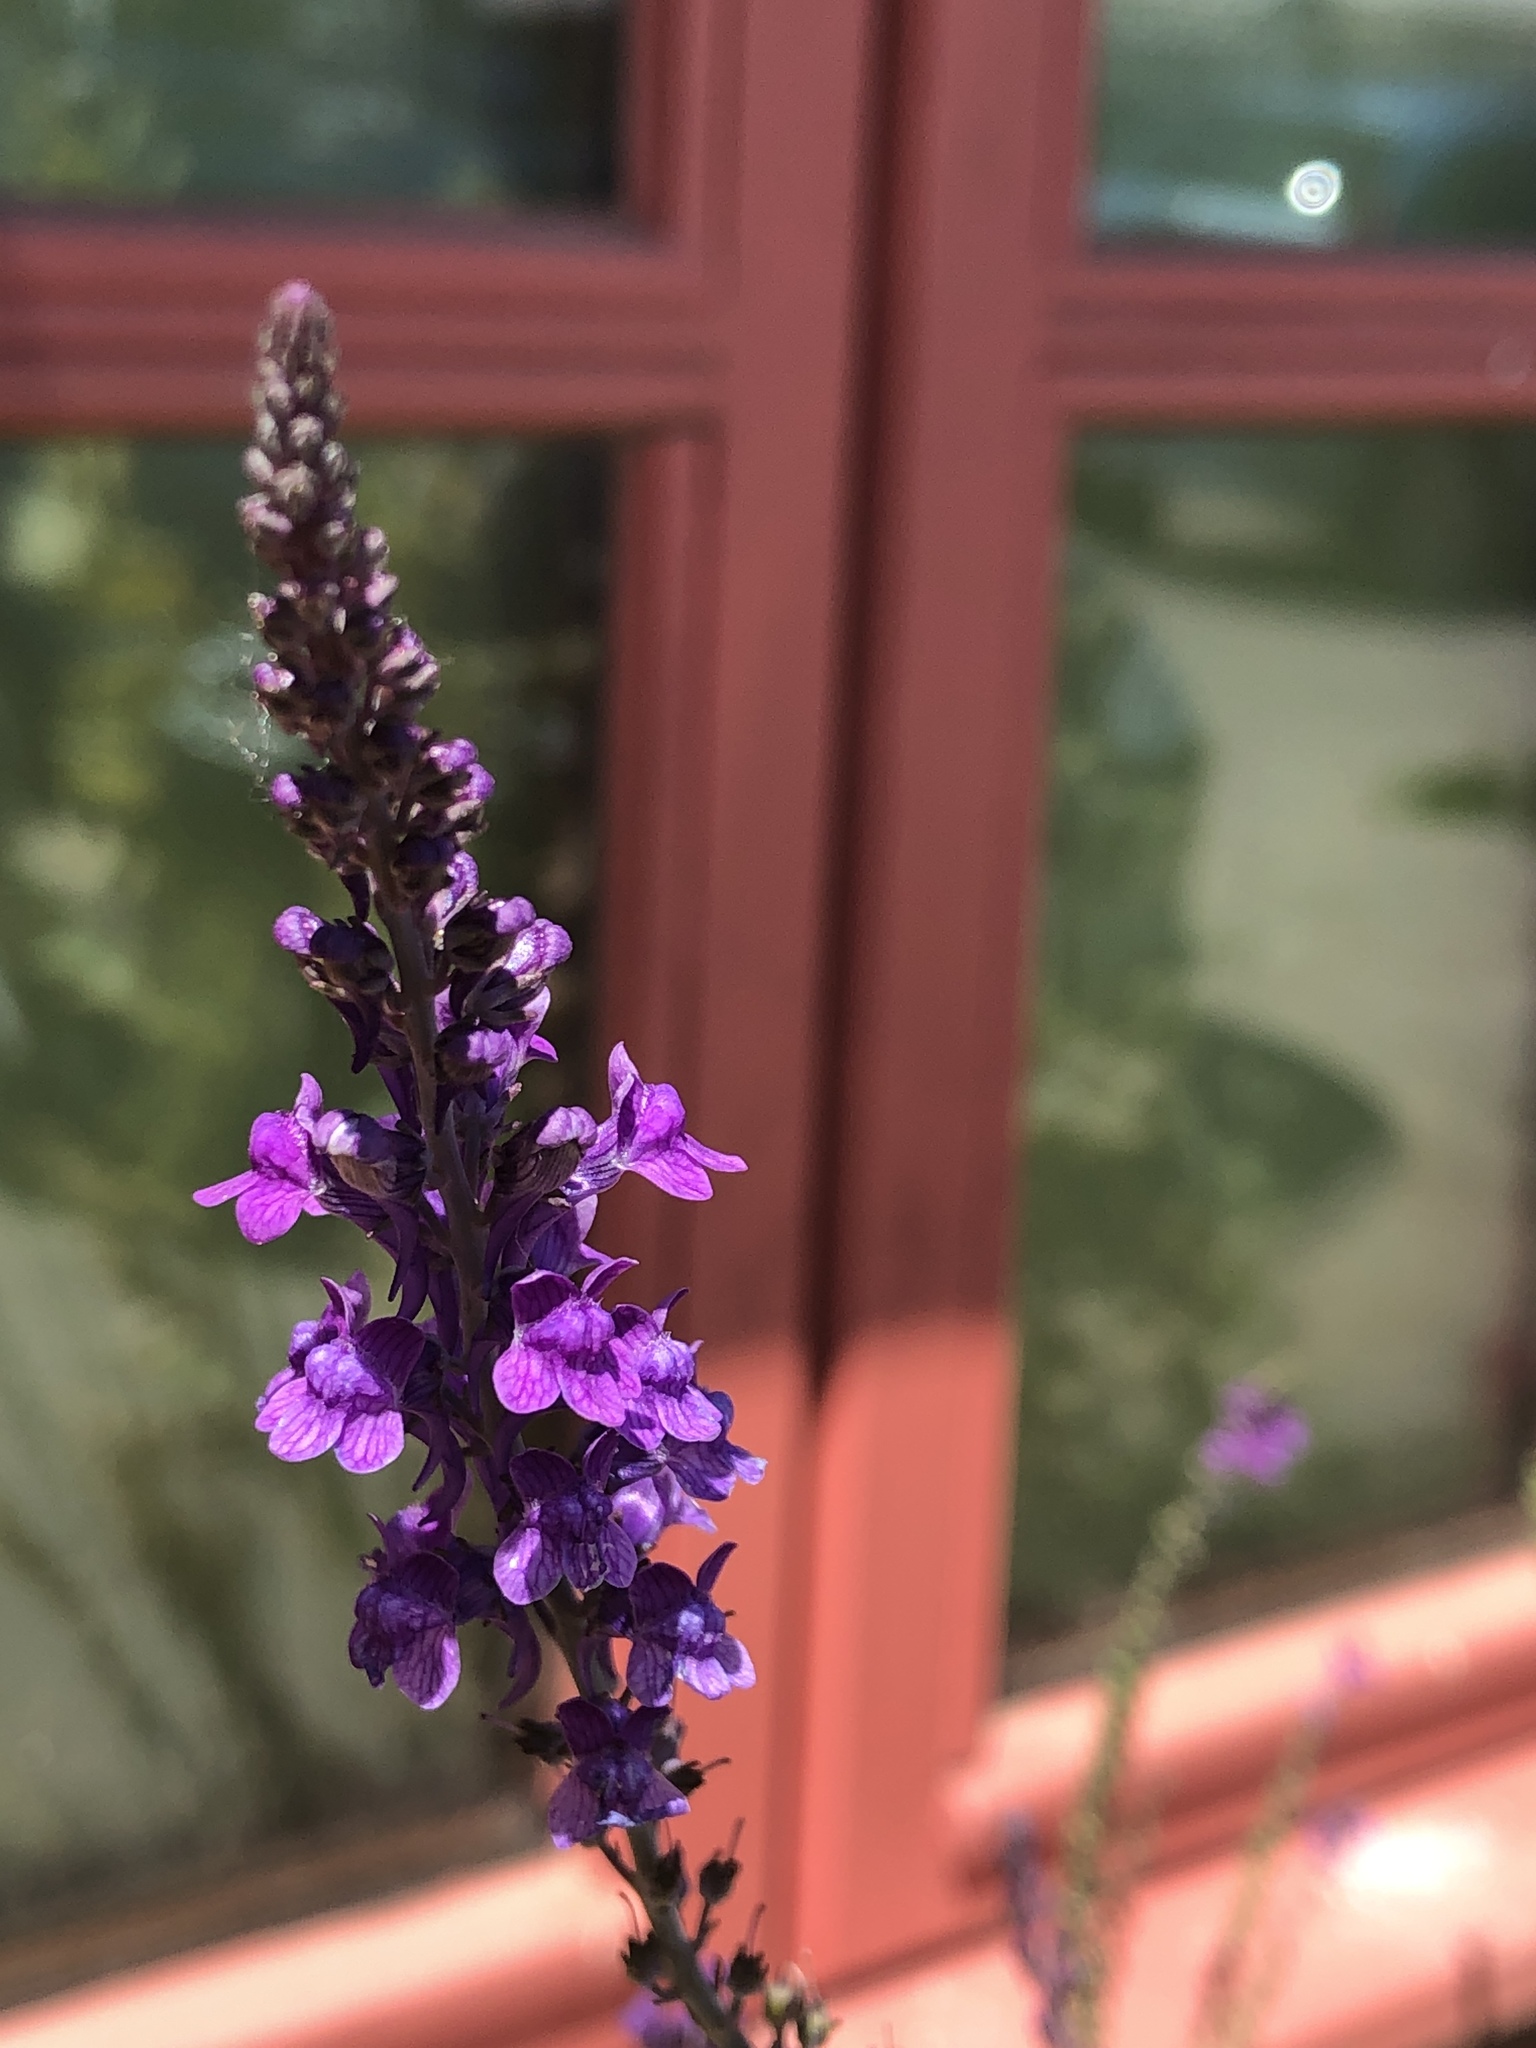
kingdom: Plantae
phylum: Tracheophyta
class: Magnoliopsida
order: Lamiales
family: Plantaginaceae
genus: Linaria
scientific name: Linaria purpurea
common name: Purple toadflax
